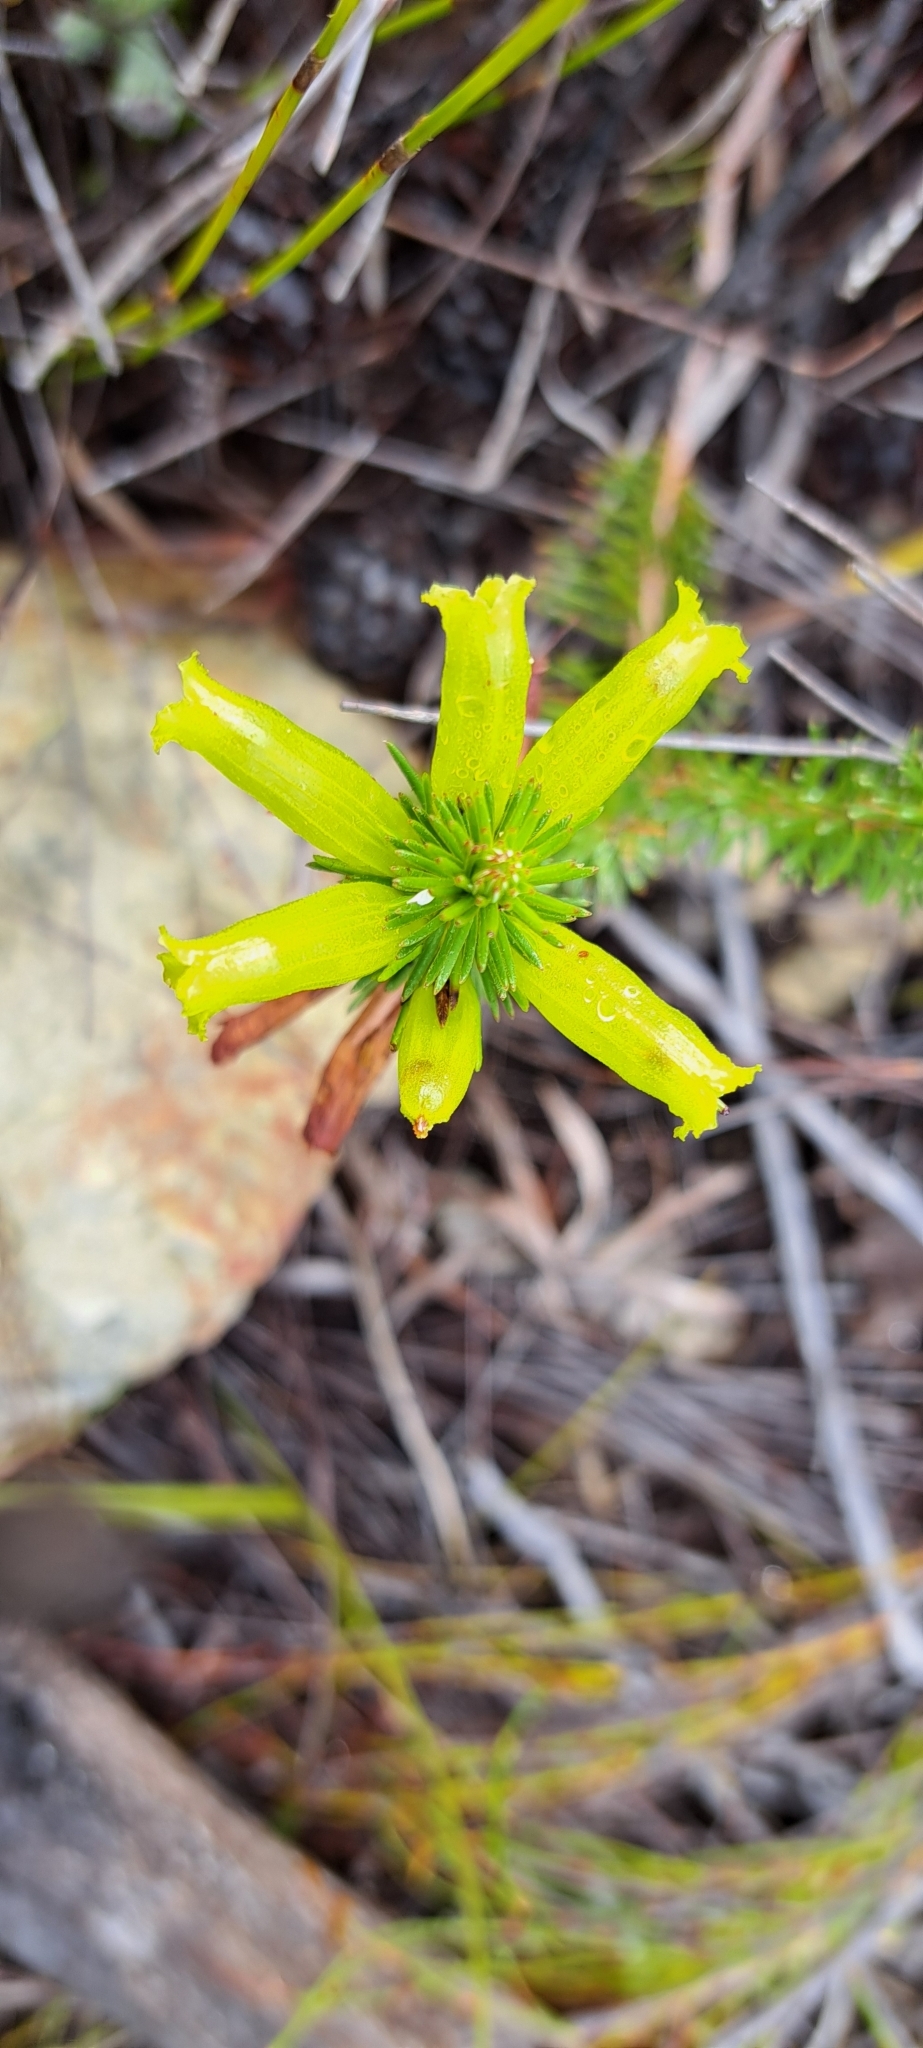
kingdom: Plantae
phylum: Tracheophyta
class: Magnoliopsida
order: Ericales
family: Ericaceae
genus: Erica
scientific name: Erica viscaria
